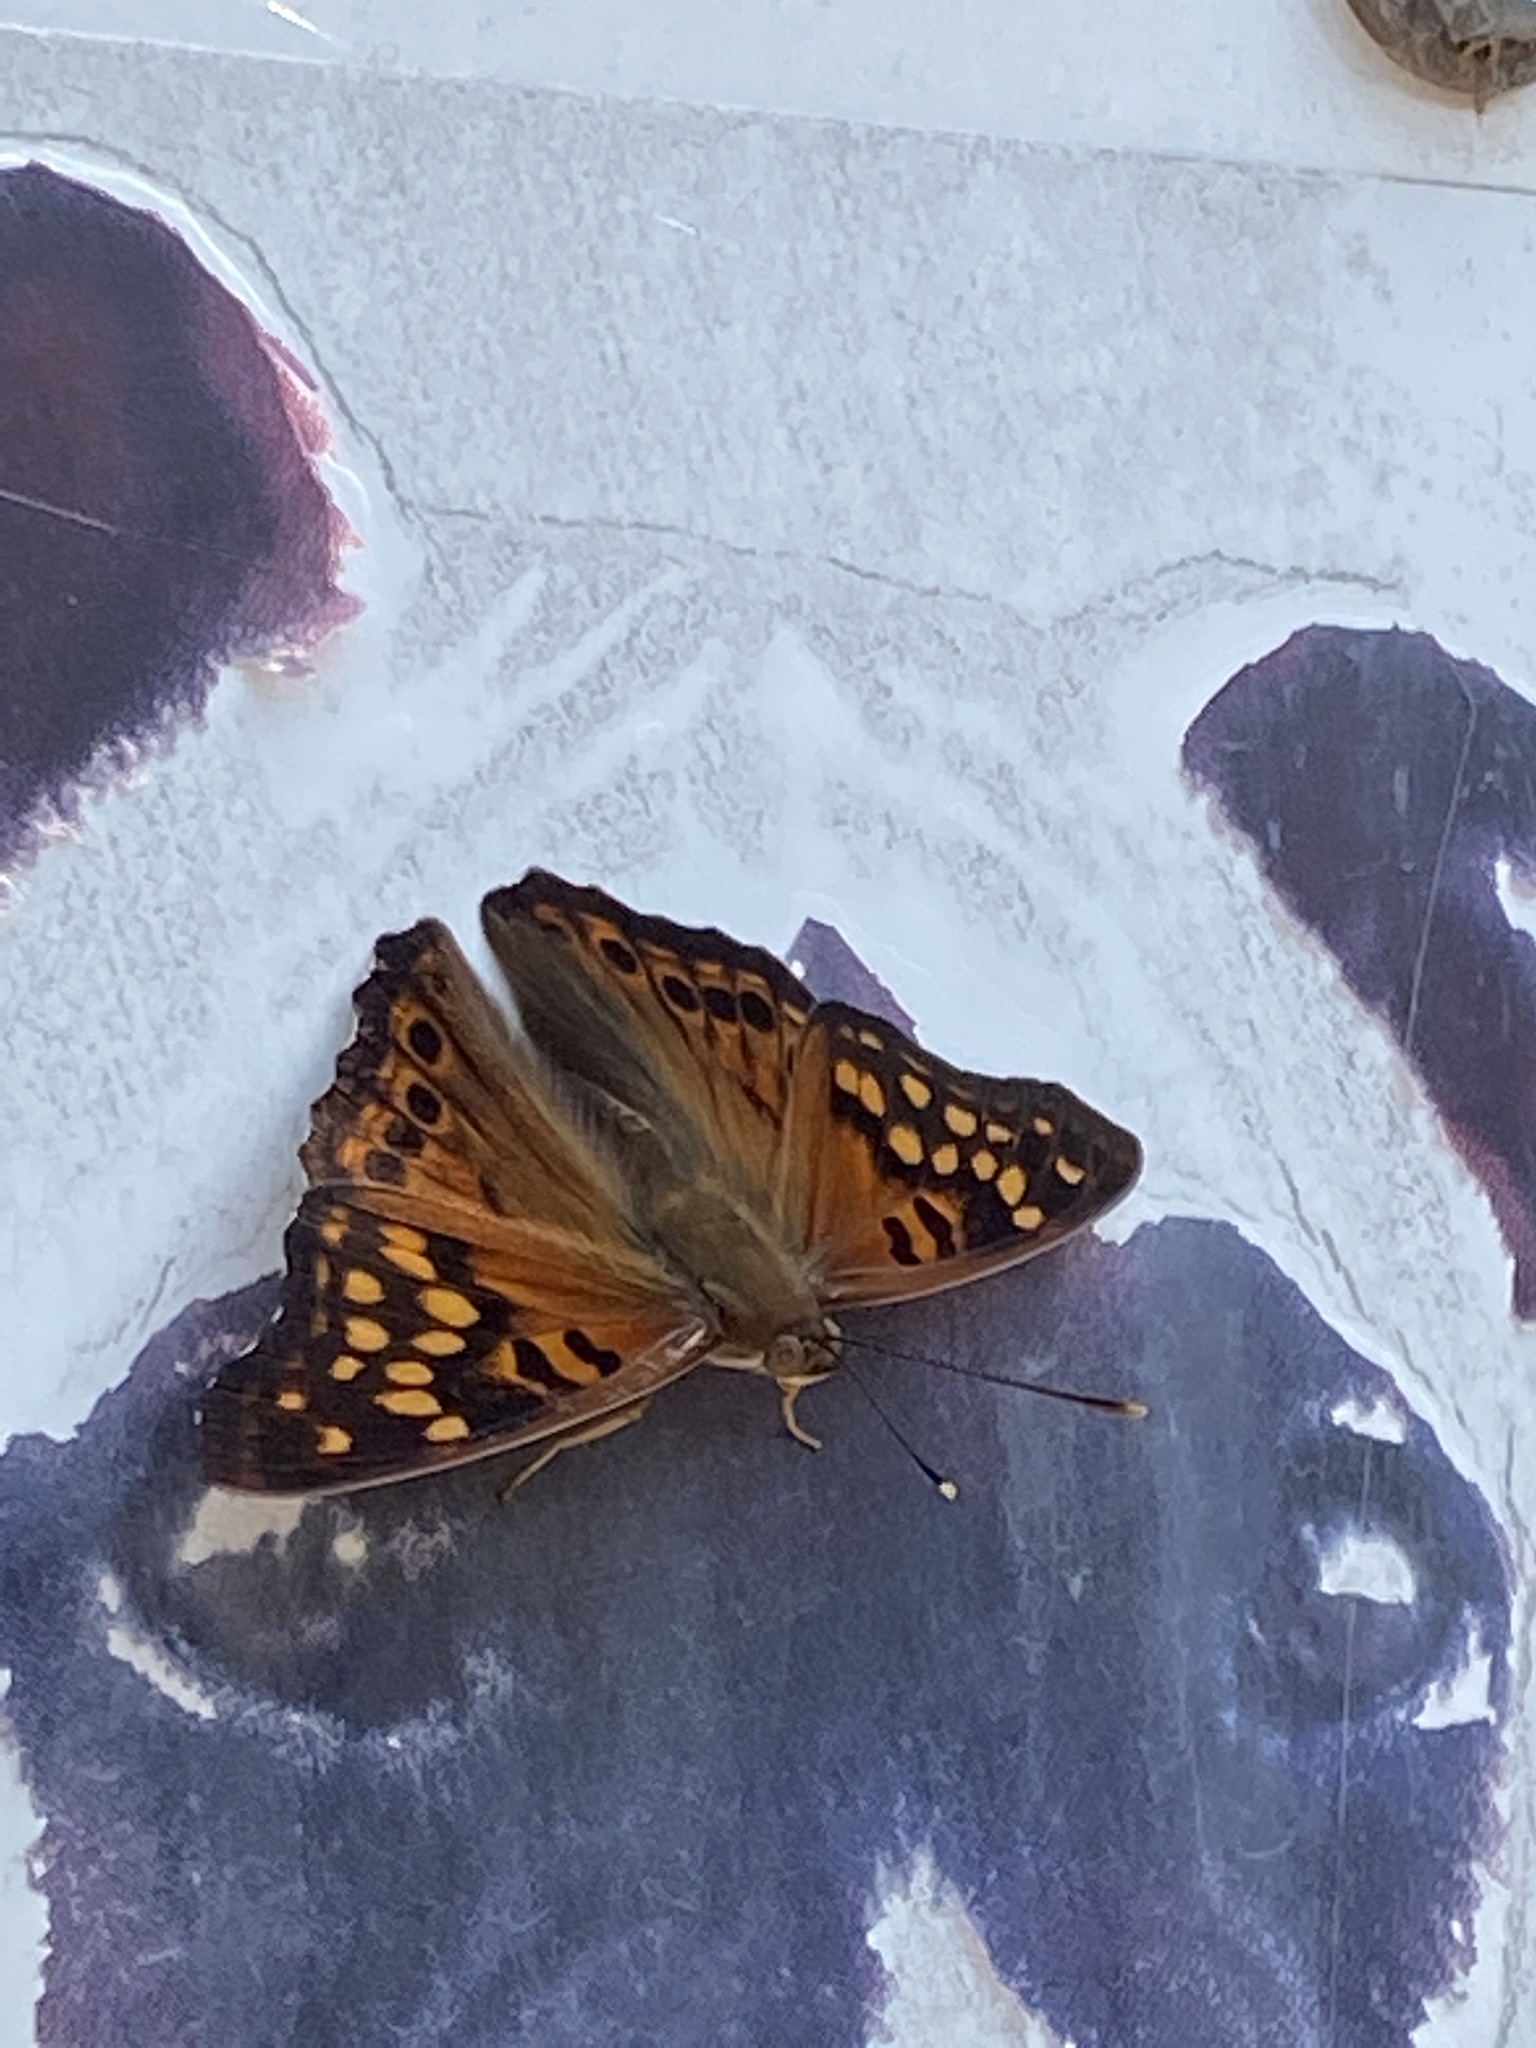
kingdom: Animalia
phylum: Arthropoda
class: Insecta
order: Lepidoptera
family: Nymphalidae
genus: Asterocampa
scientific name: Asterocampa clyton
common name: Tawny emperor
